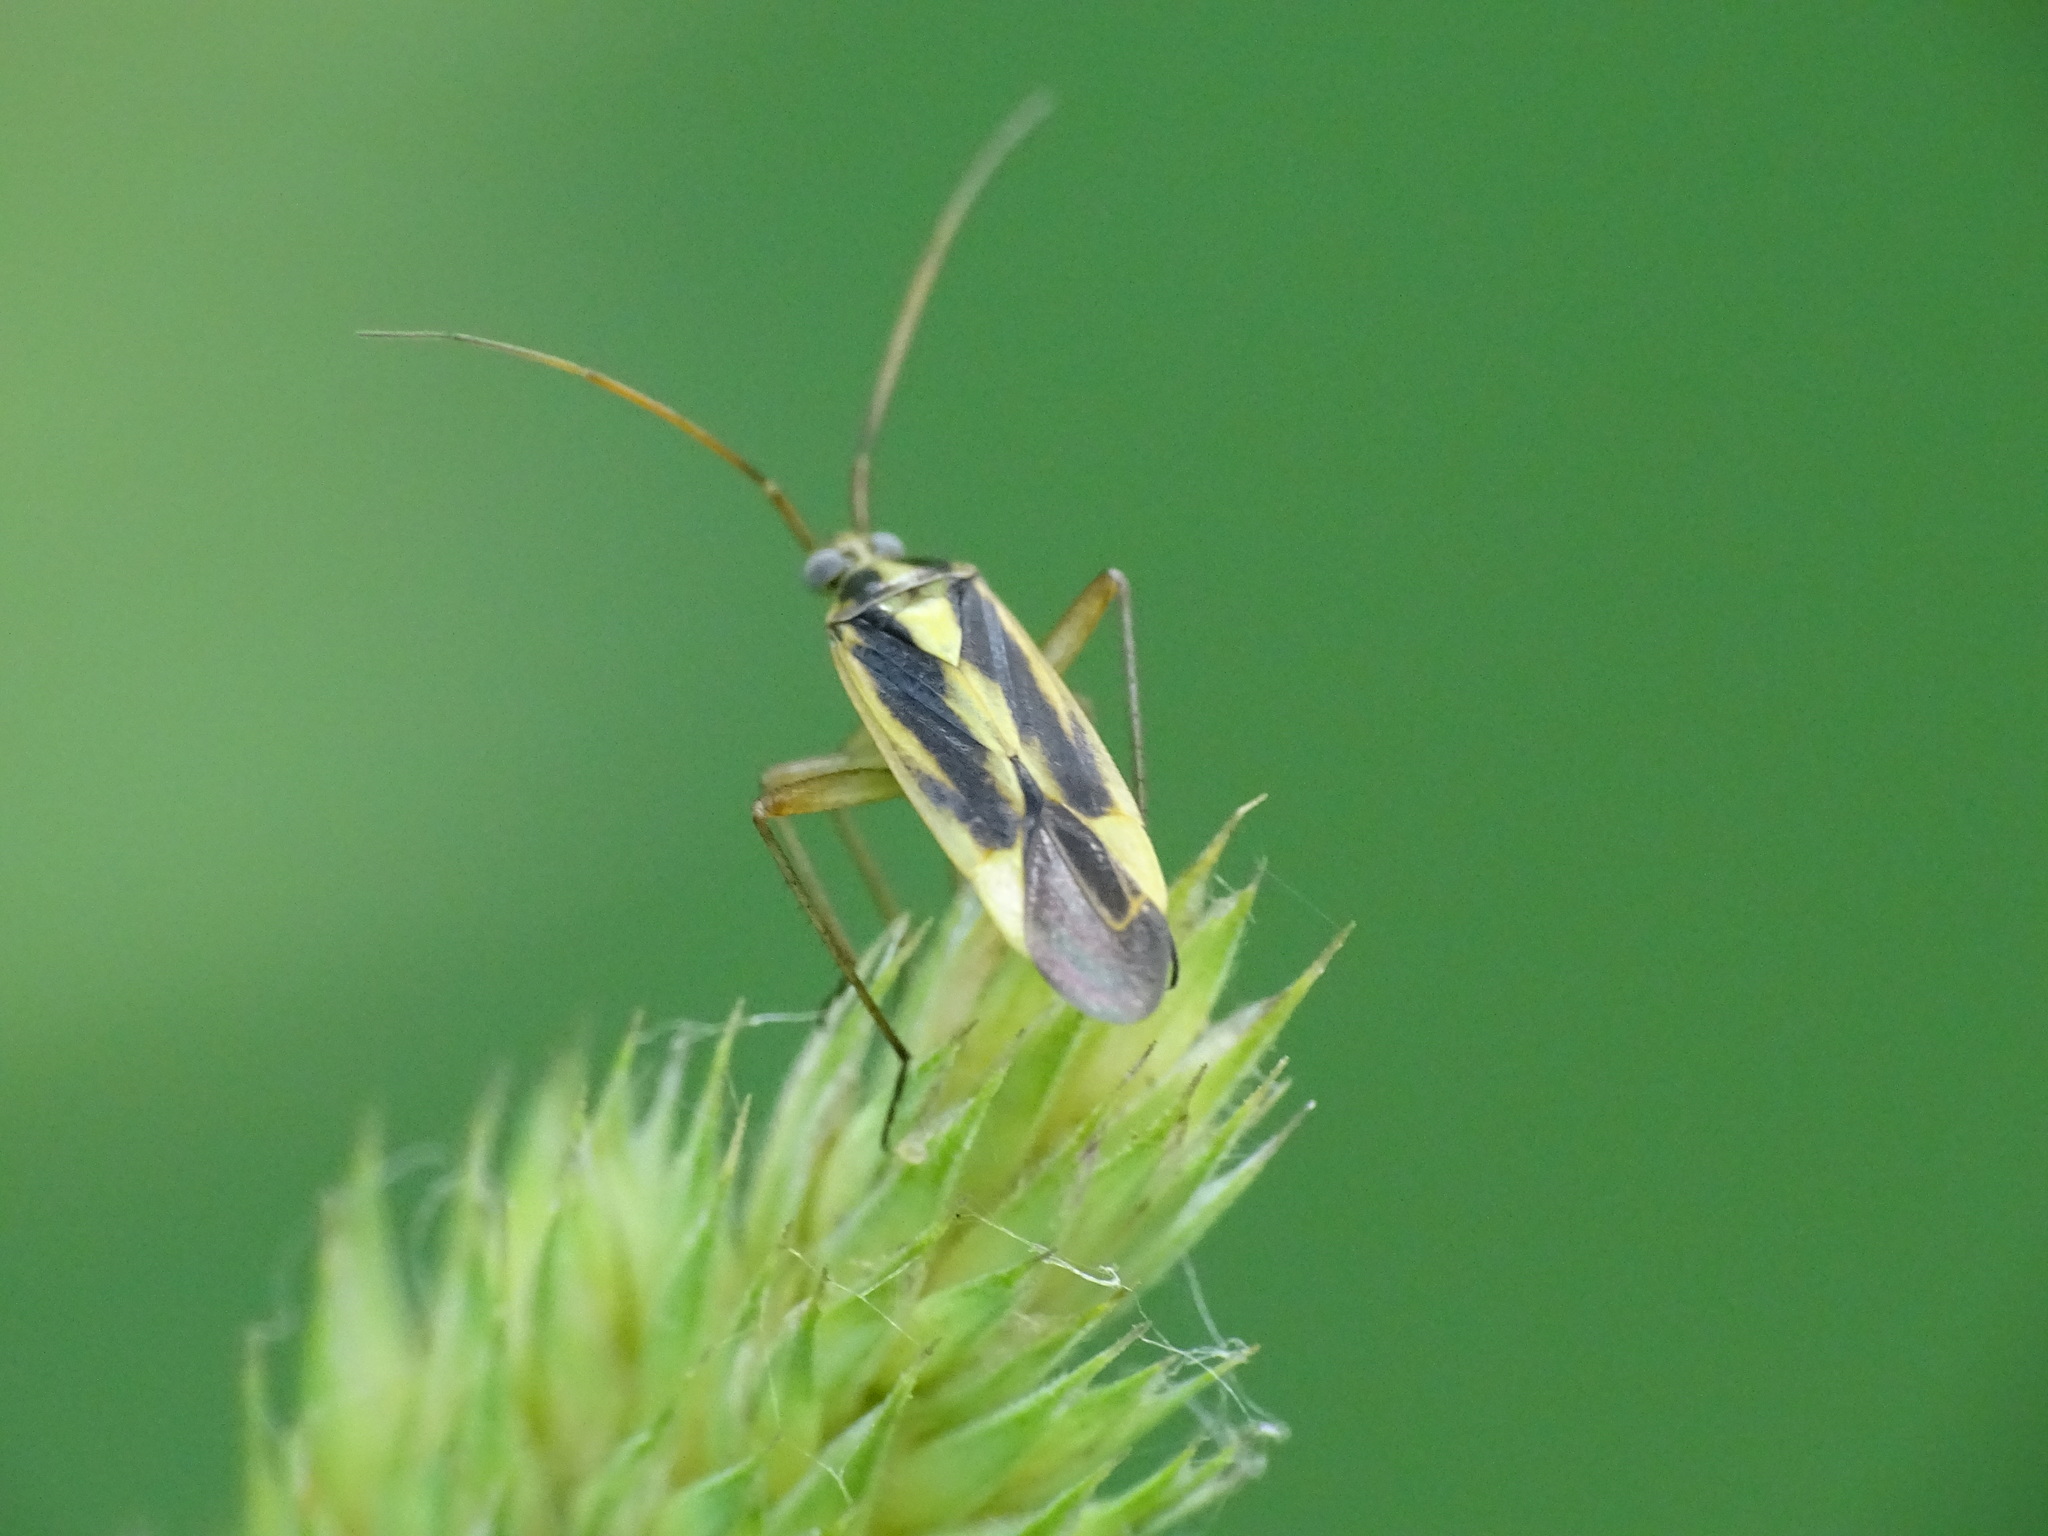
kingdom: Animalia
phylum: Arthropoda
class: Insecta
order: Hemiptera
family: Miridae
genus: Stenotus
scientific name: Stenotus binotatus
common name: Plant bug
